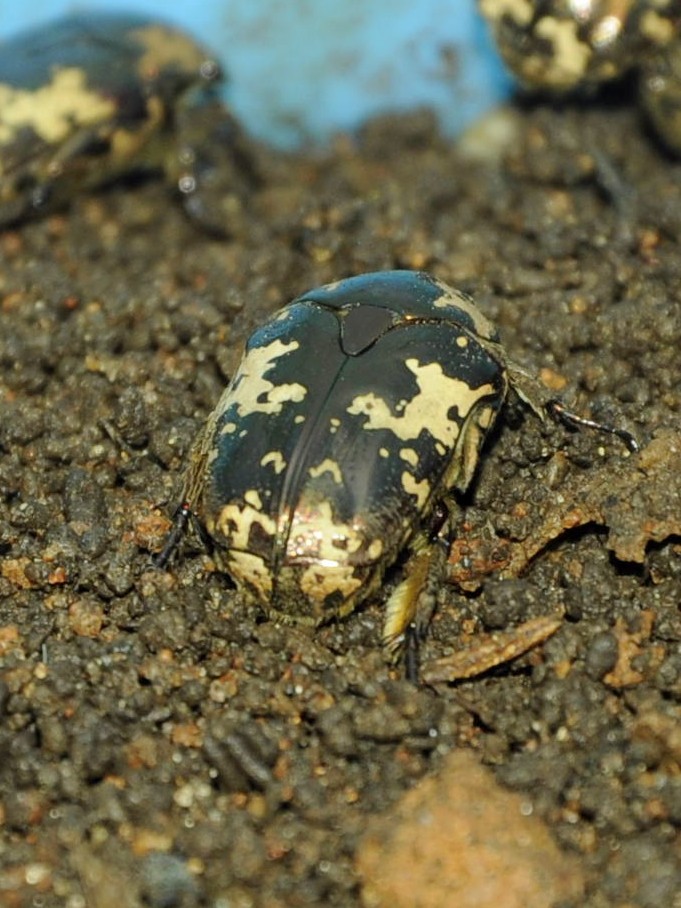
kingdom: Animalia
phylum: Arthropoda
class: Insecta
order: Coleoptera
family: Scarabaeidae
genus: Protaetia
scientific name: Protaetia aurichalcea
